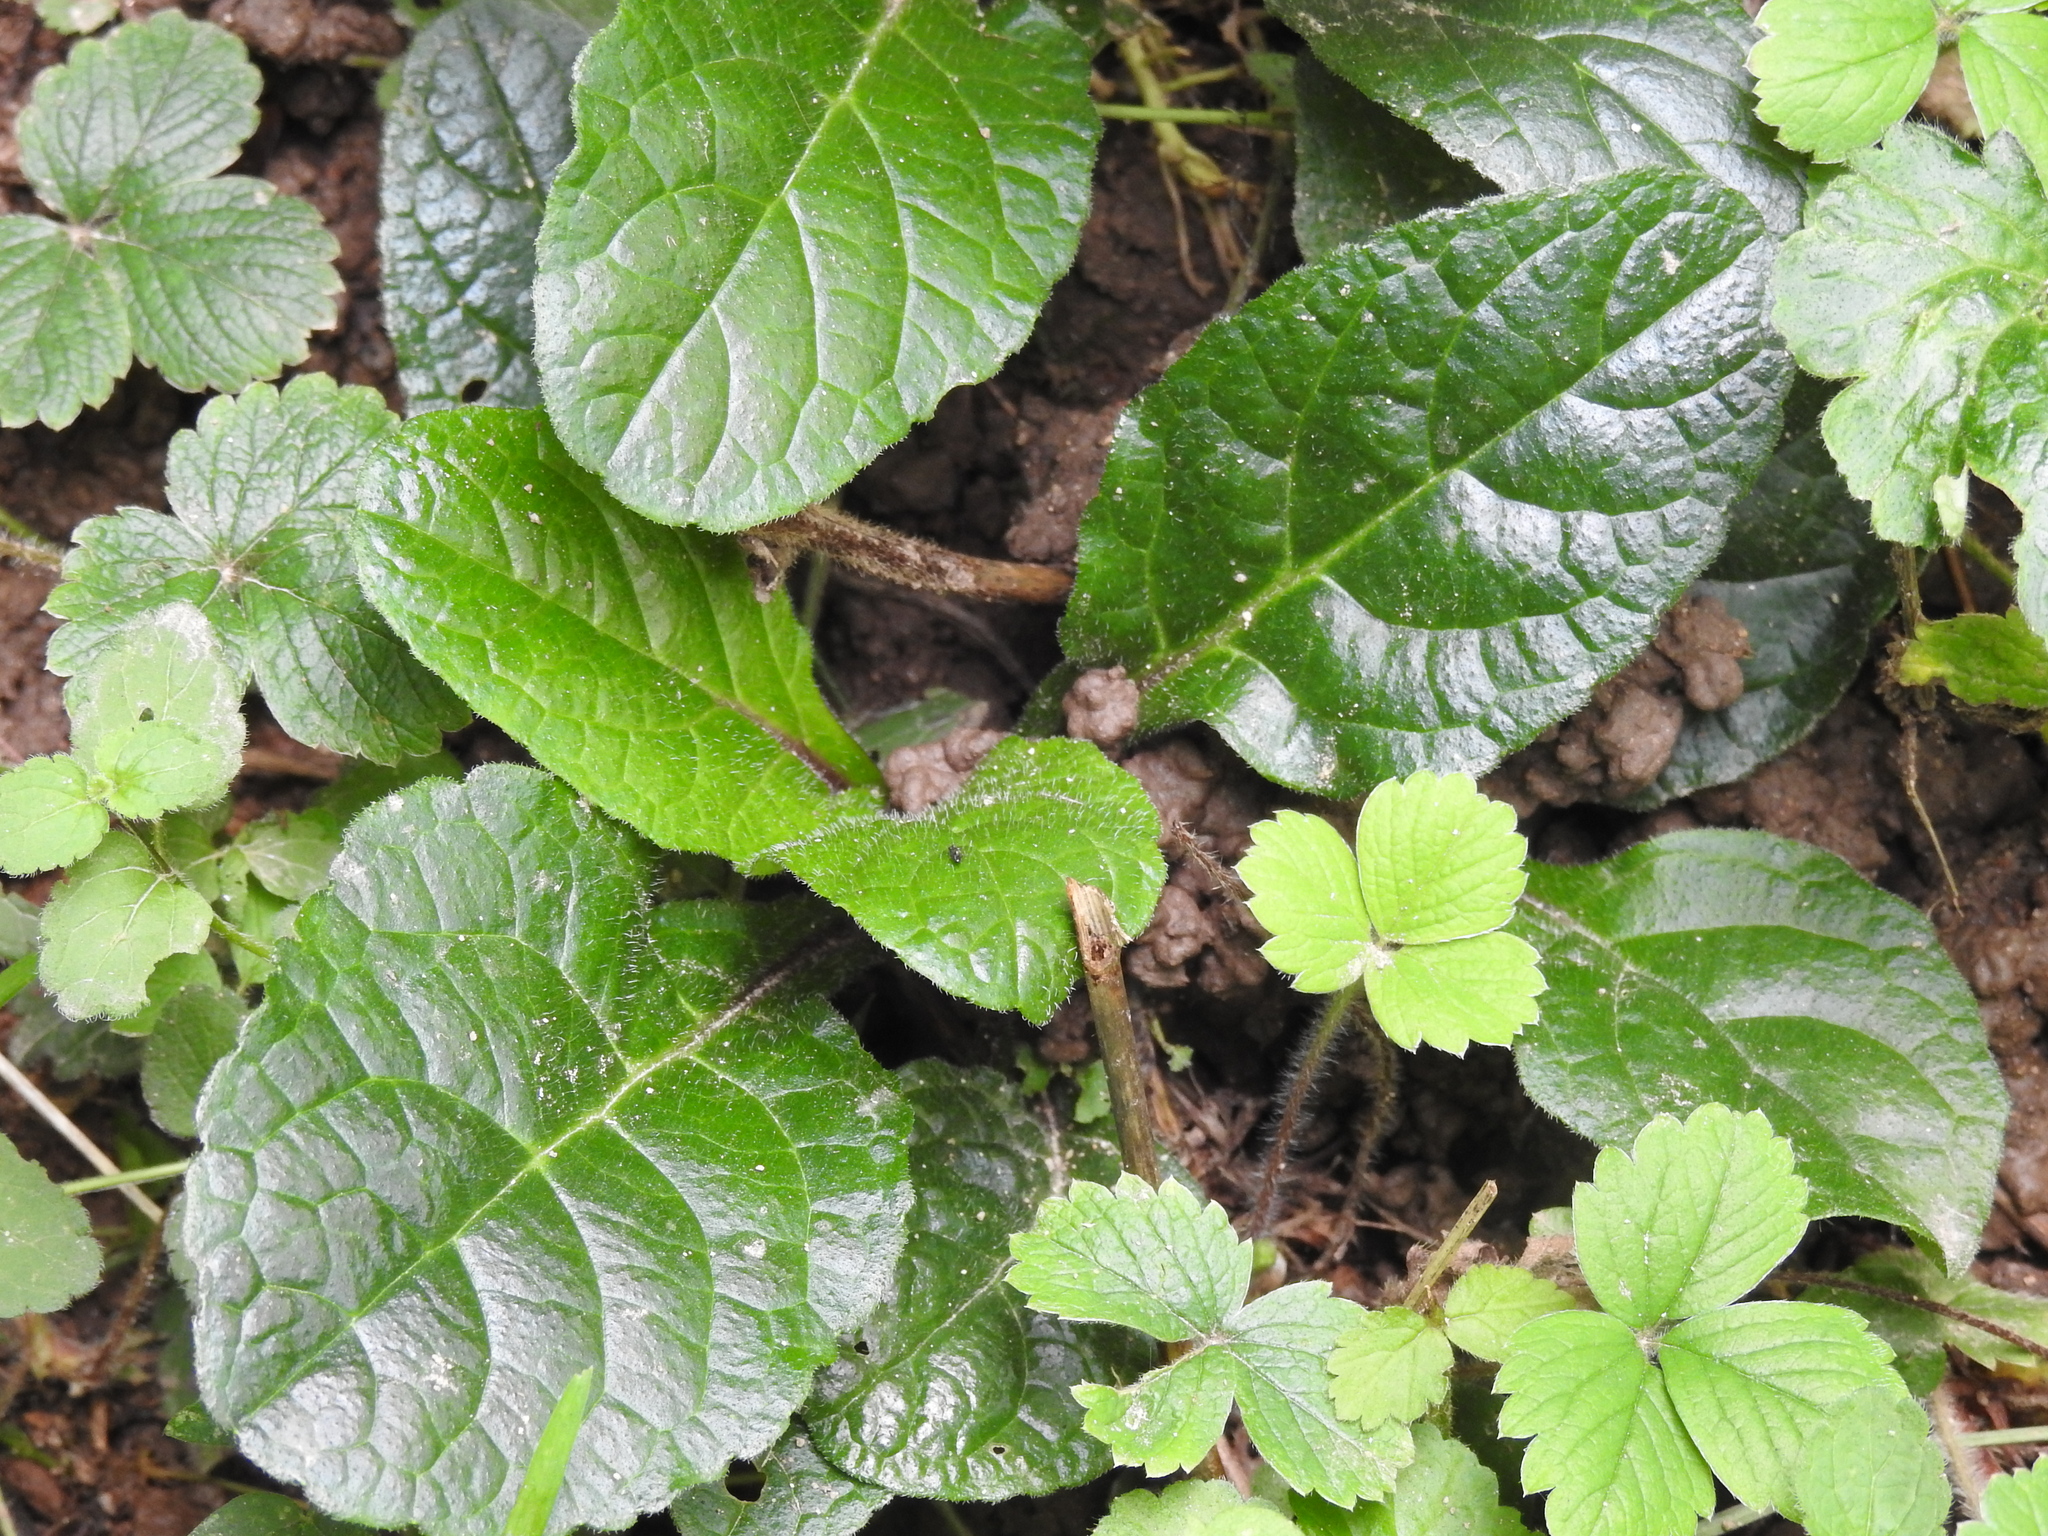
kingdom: Plantae
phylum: Tracheophyta
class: Magnoliopsida
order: Lamiales
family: Lamiaceae
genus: Ajuga
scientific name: Ajuga reptans
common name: Bugle
